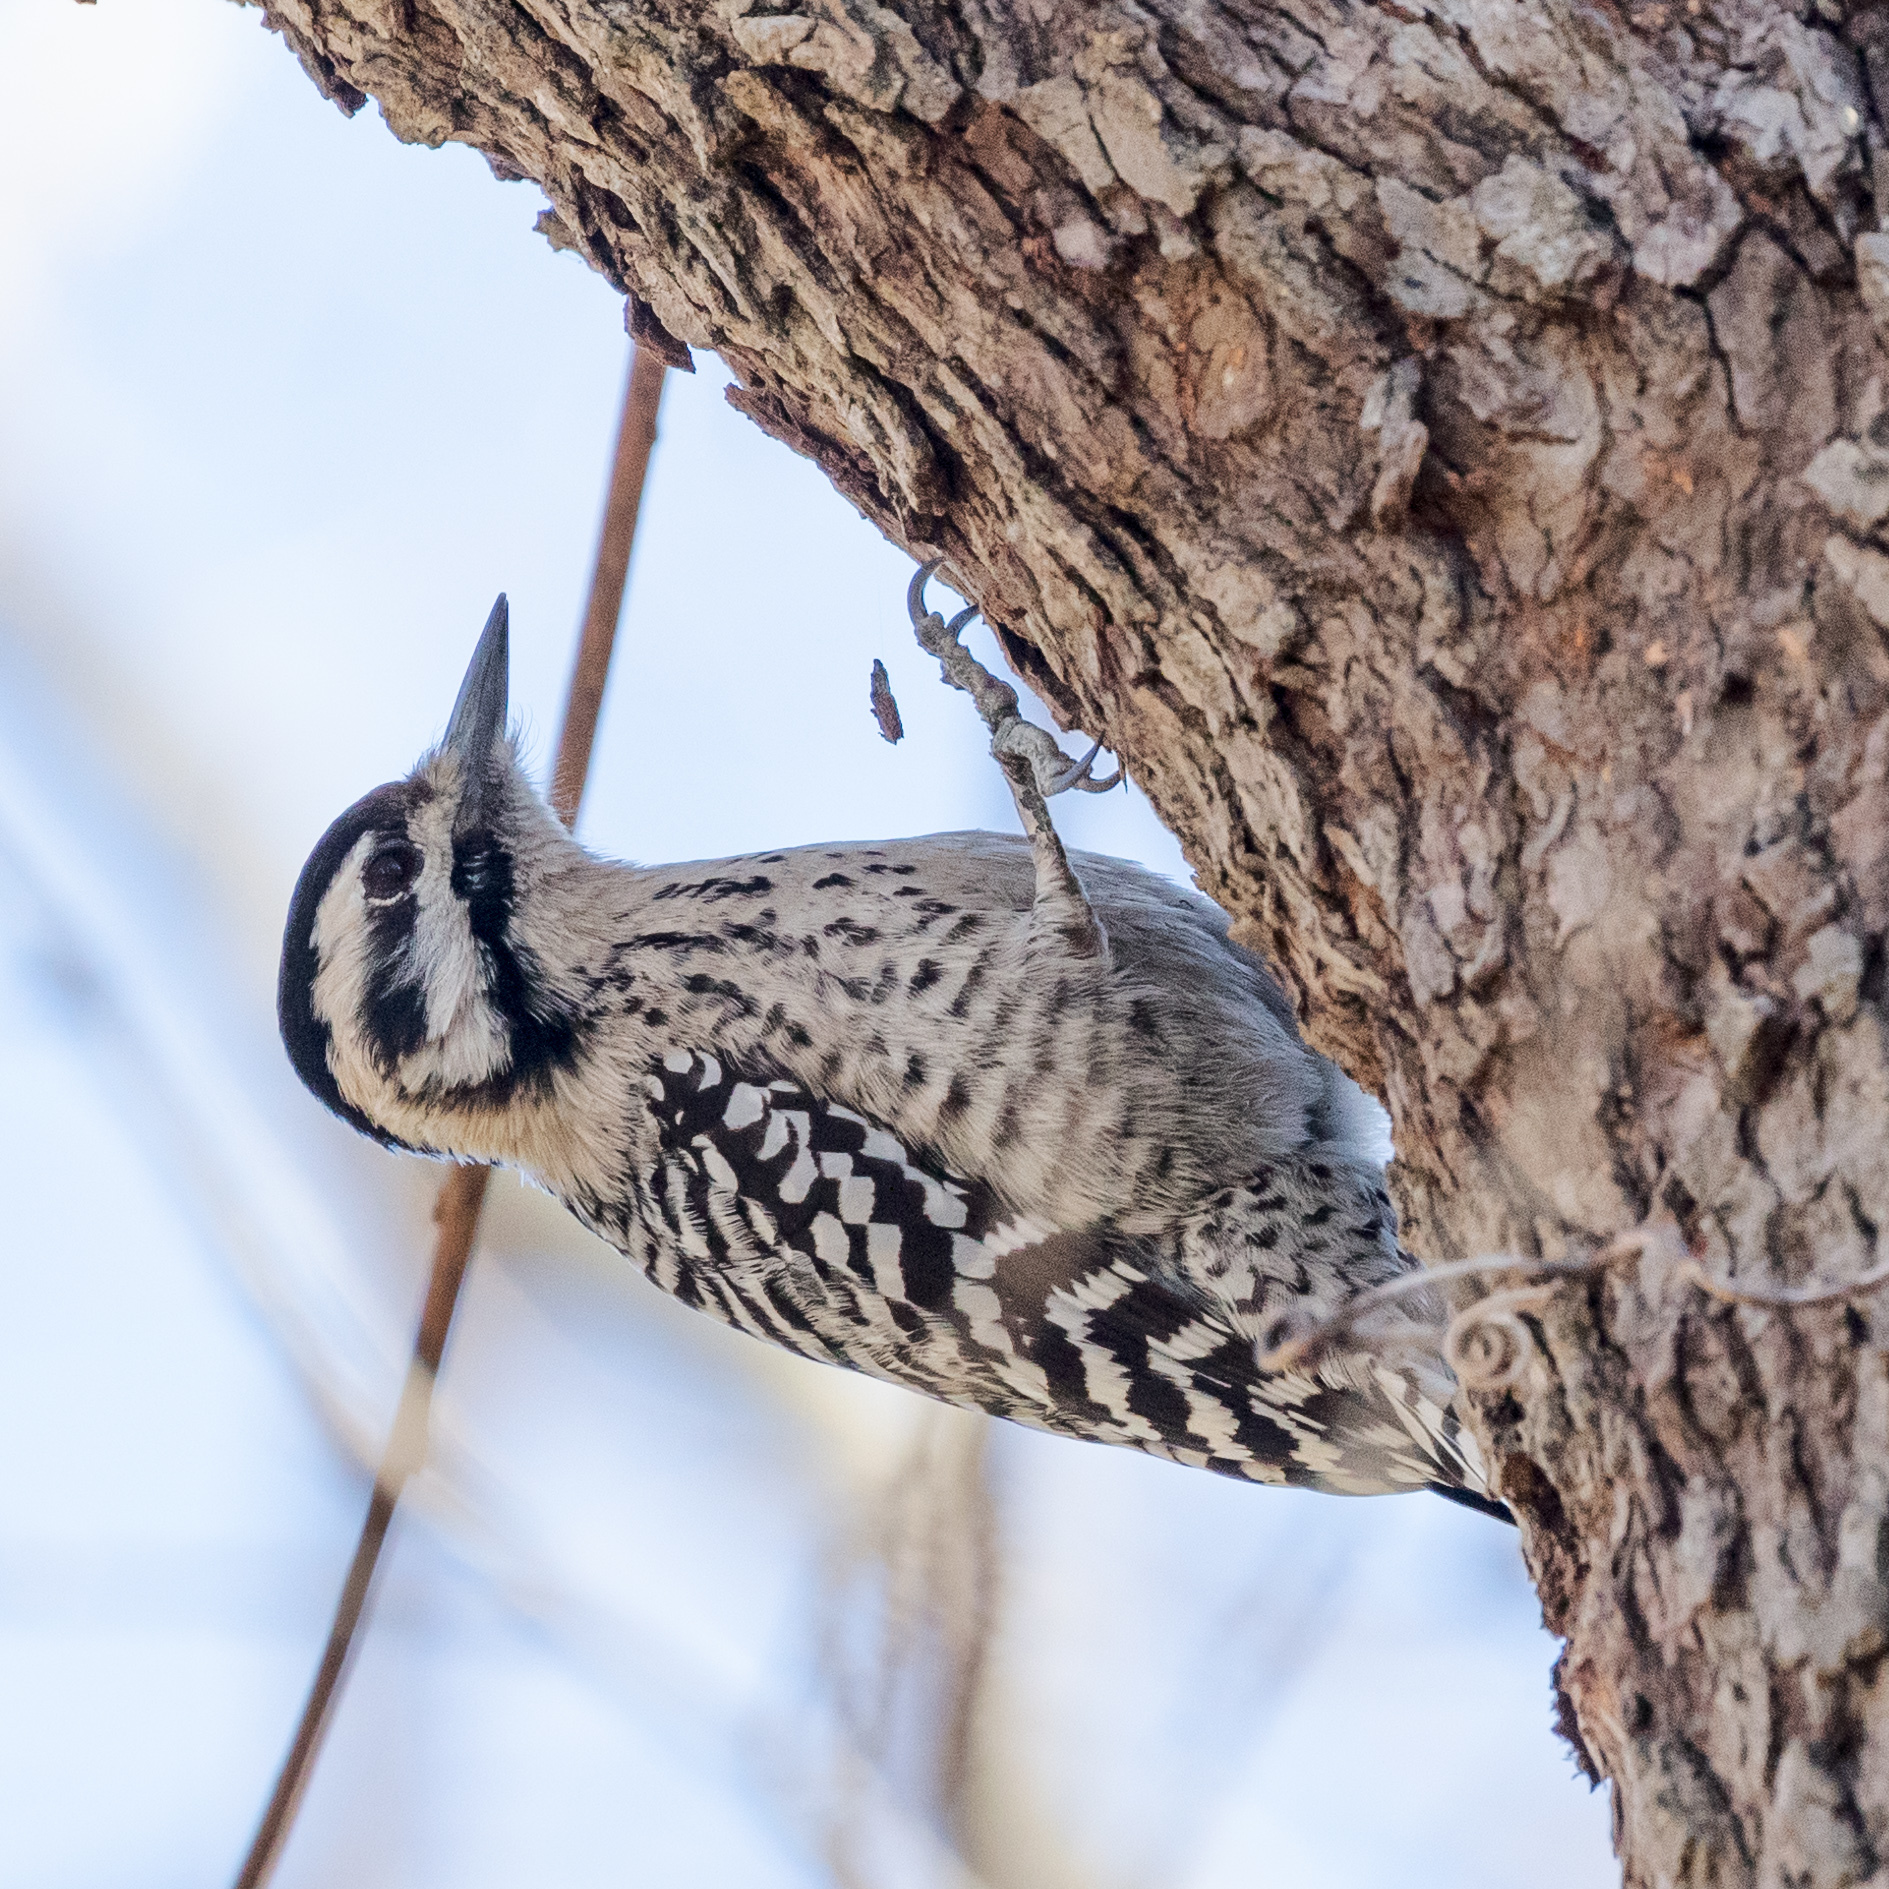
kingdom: Animalia
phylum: Chordata
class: Aves
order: Piciformes
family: Picidae
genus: Dryobates
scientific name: Dryobates scalaris
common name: Ladder-backed woodpecker
